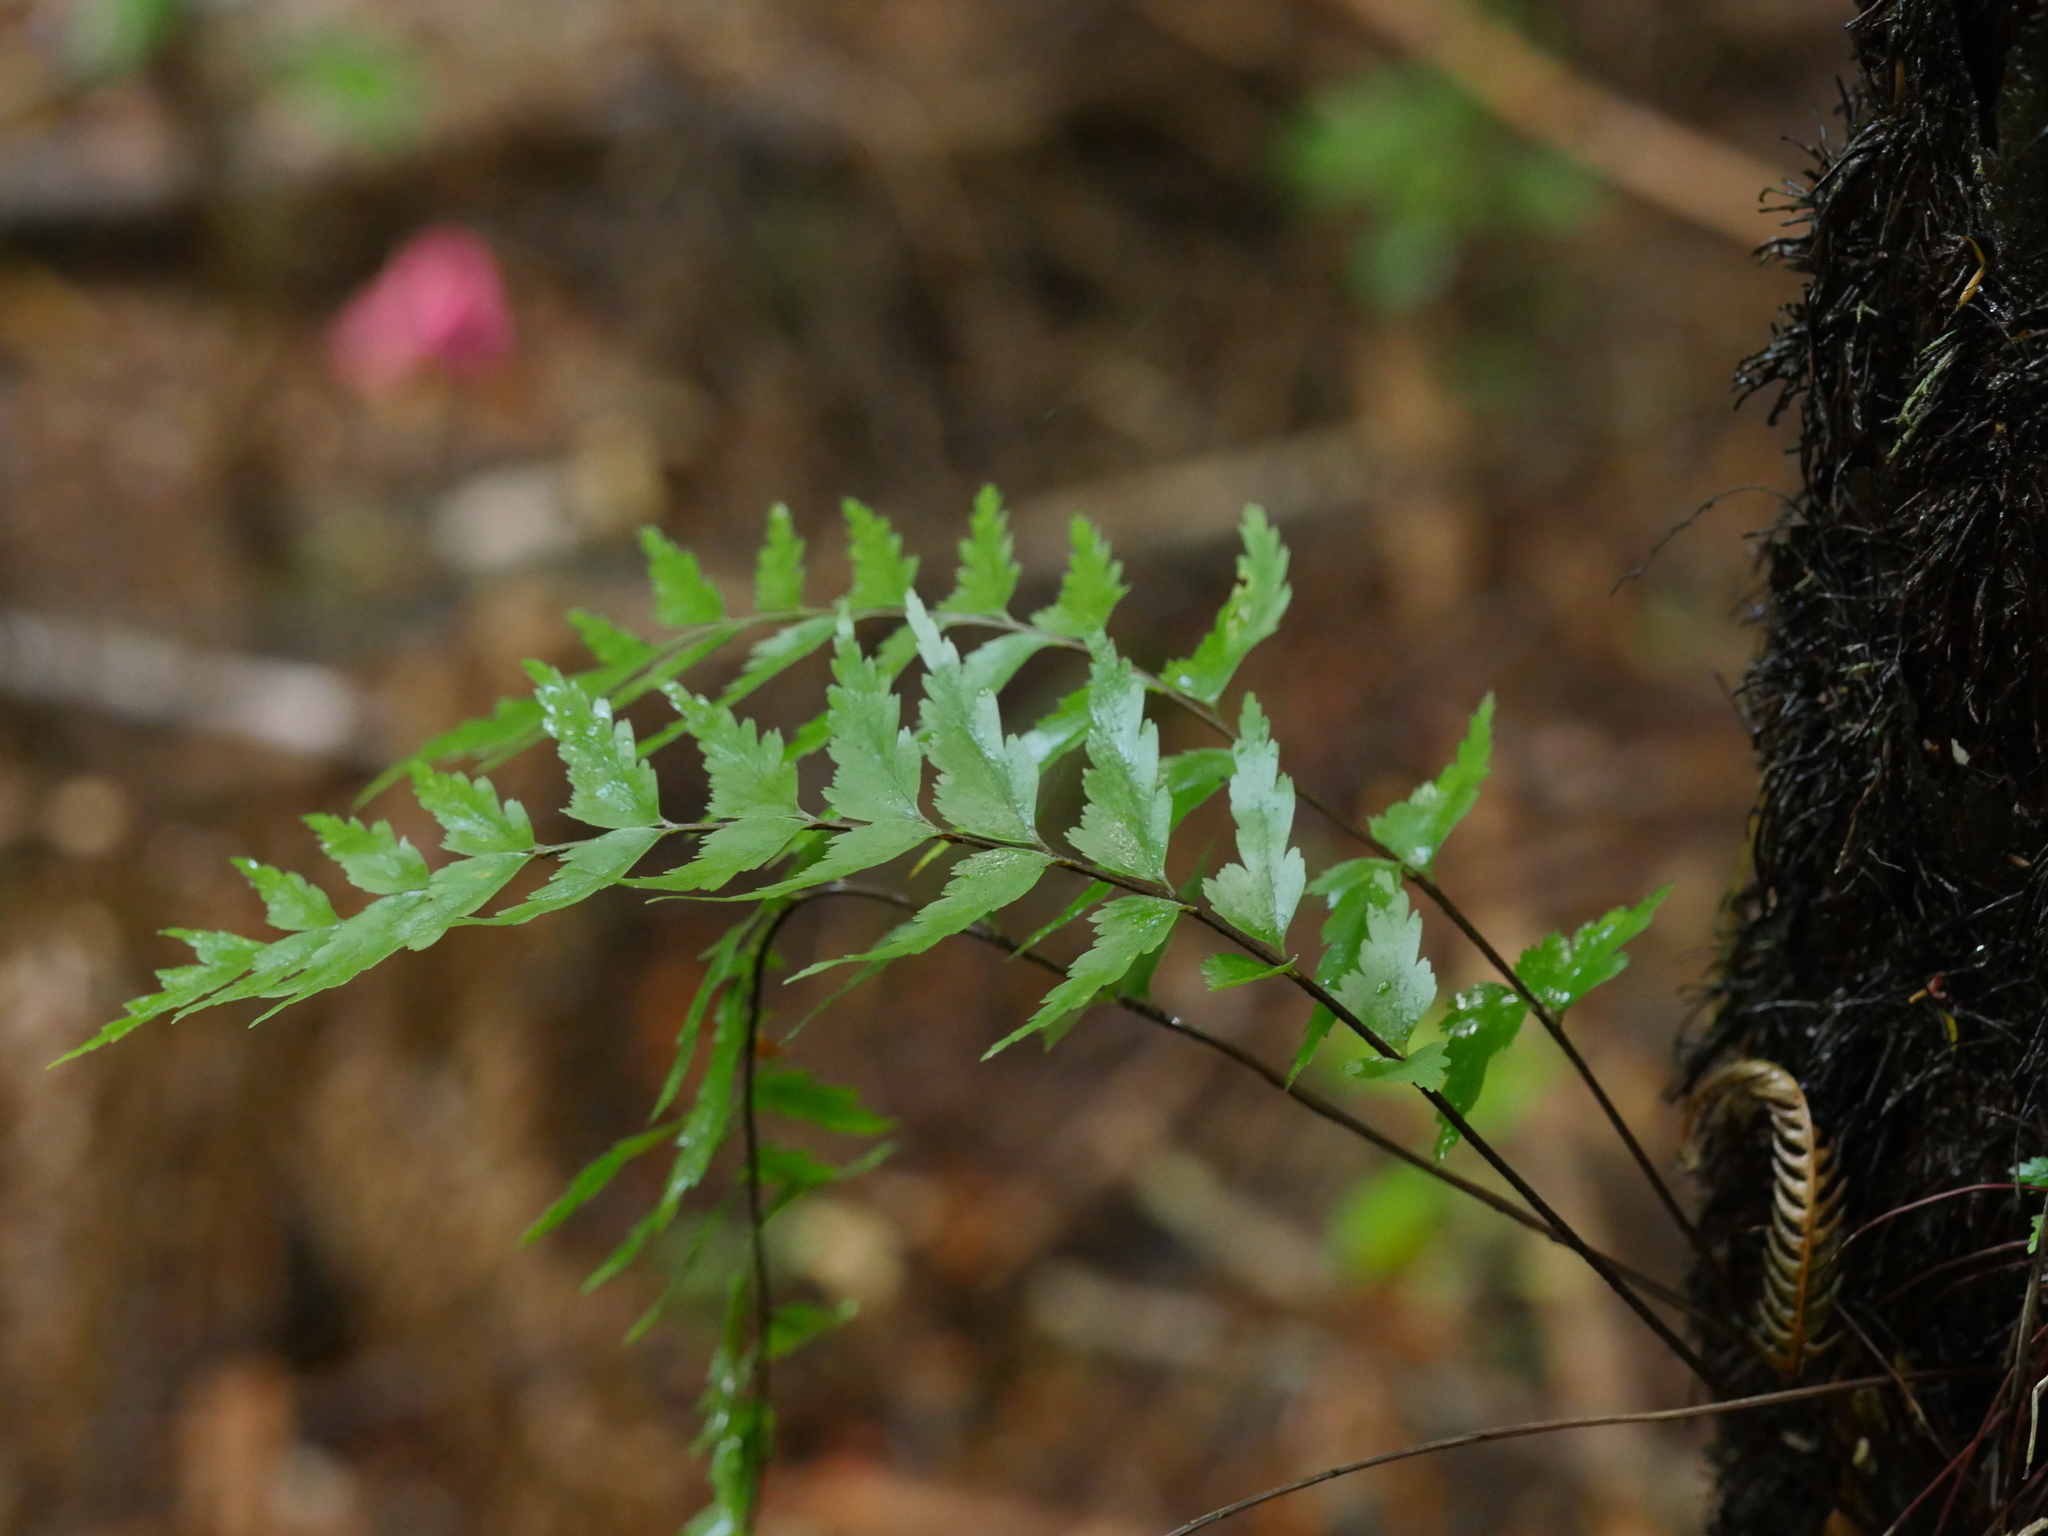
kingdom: Plantae
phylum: Tracheophyta
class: Polypodiopsida
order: Polypodiales
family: Aspleniaceae
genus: Asplenium
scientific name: Asplenium polyodon
